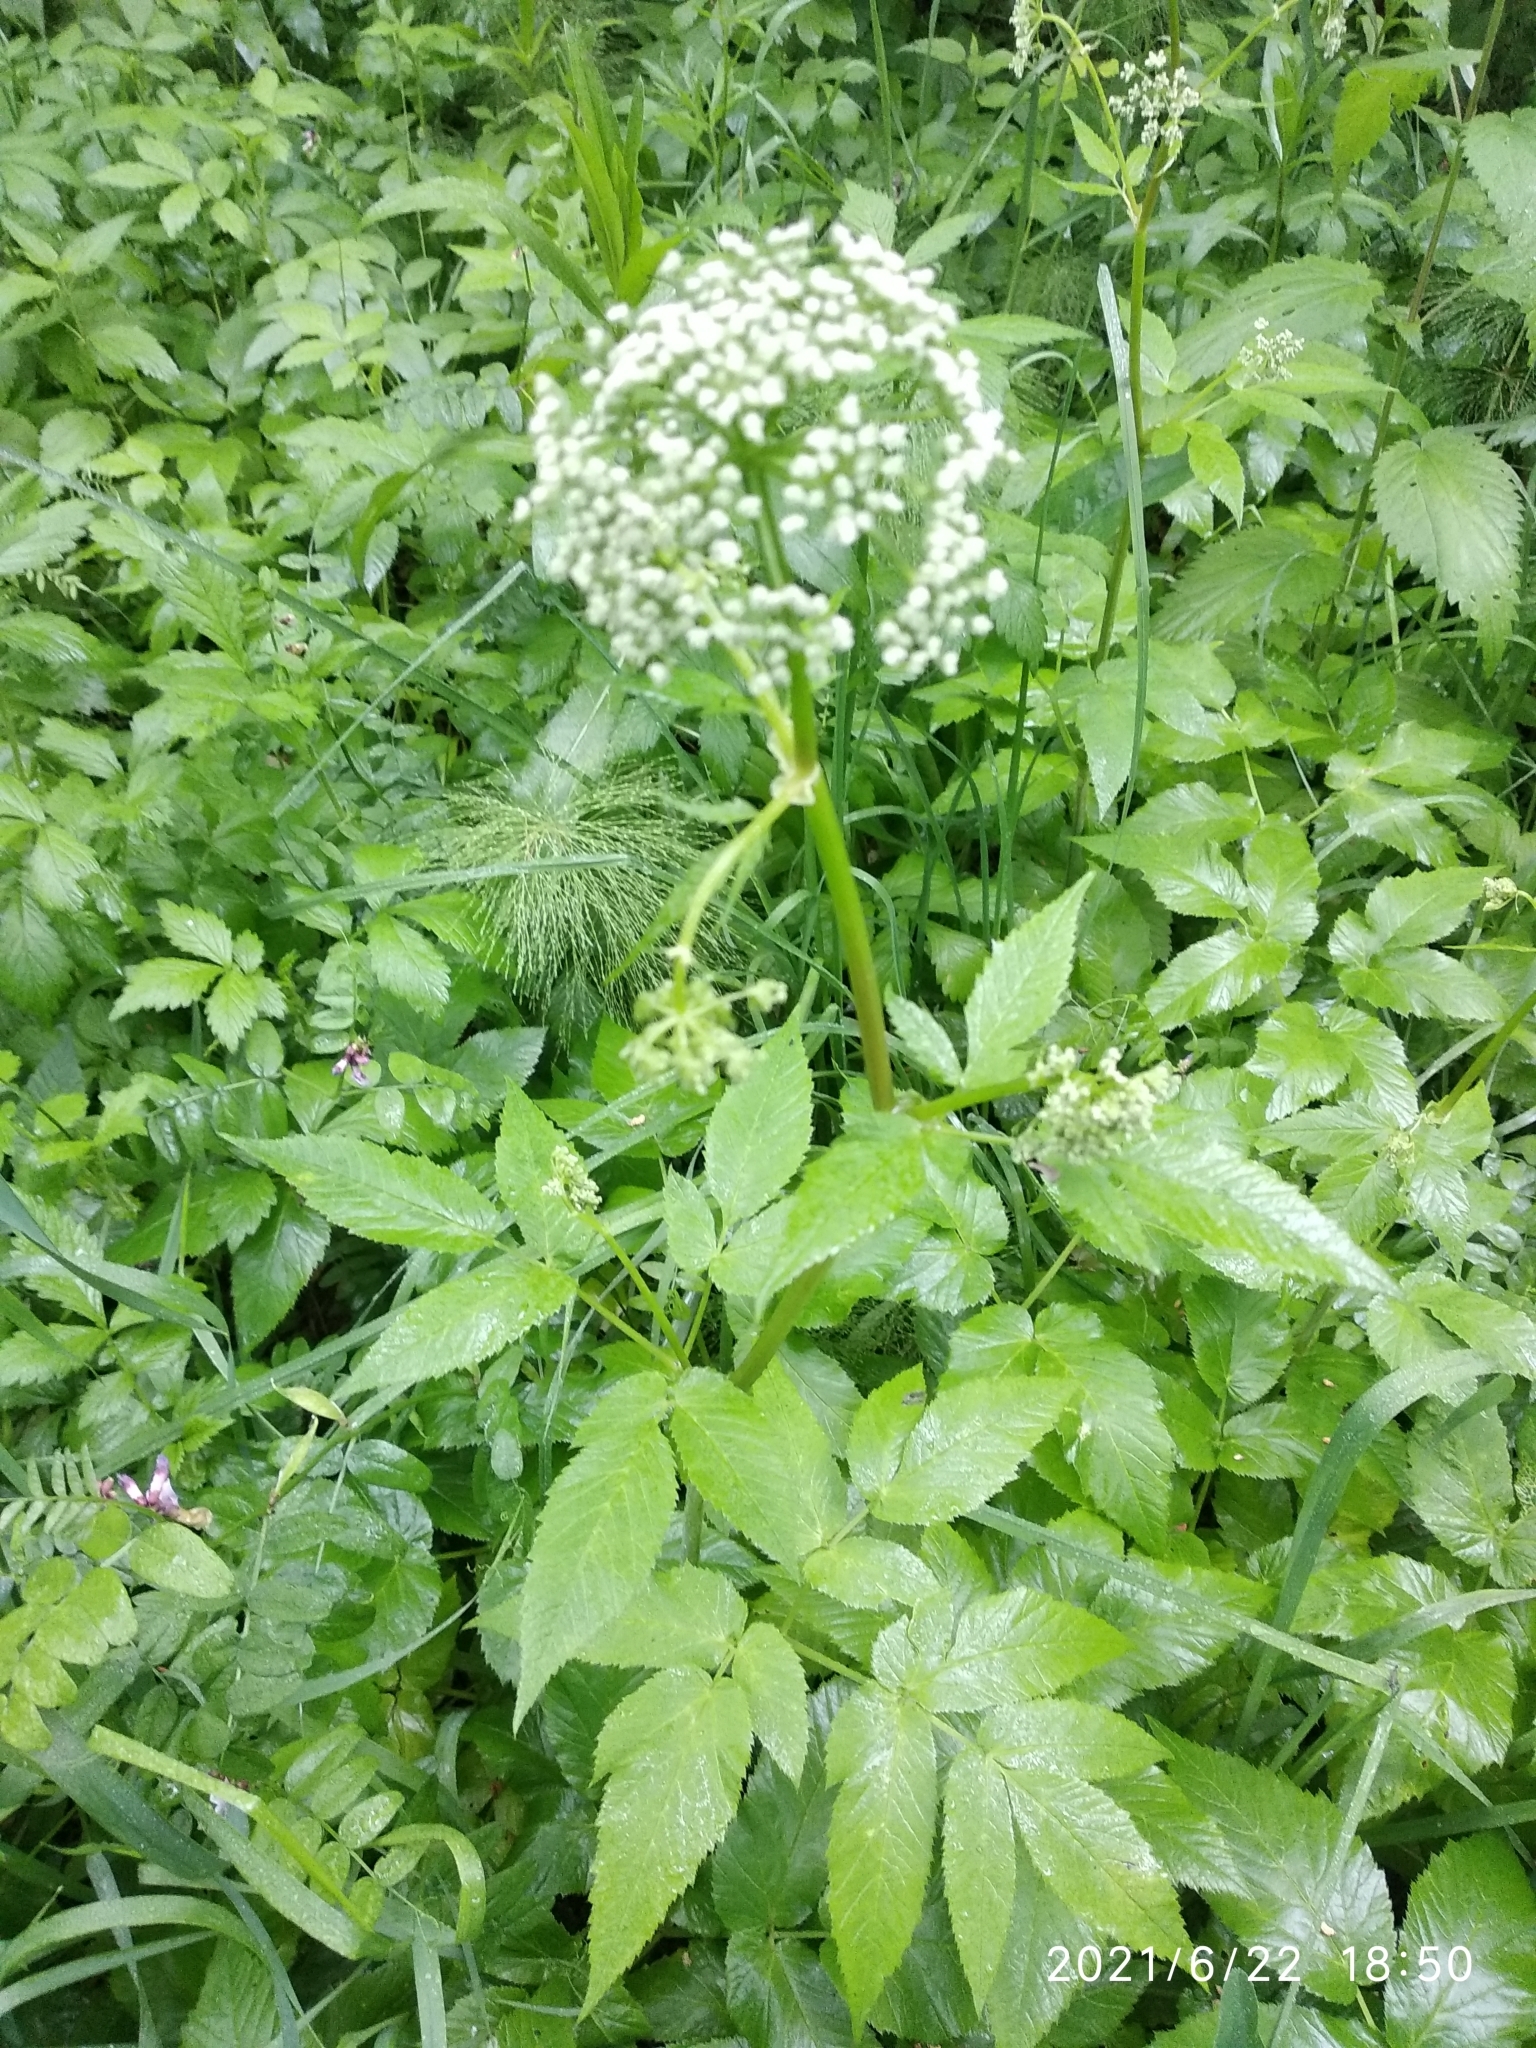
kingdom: Plantae
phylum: Tracheophyta
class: Magnoliopsida
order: Apiales
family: Apiaceae
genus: Aegopodium
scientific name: Aegopodium podagraria
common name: Ground-elder
